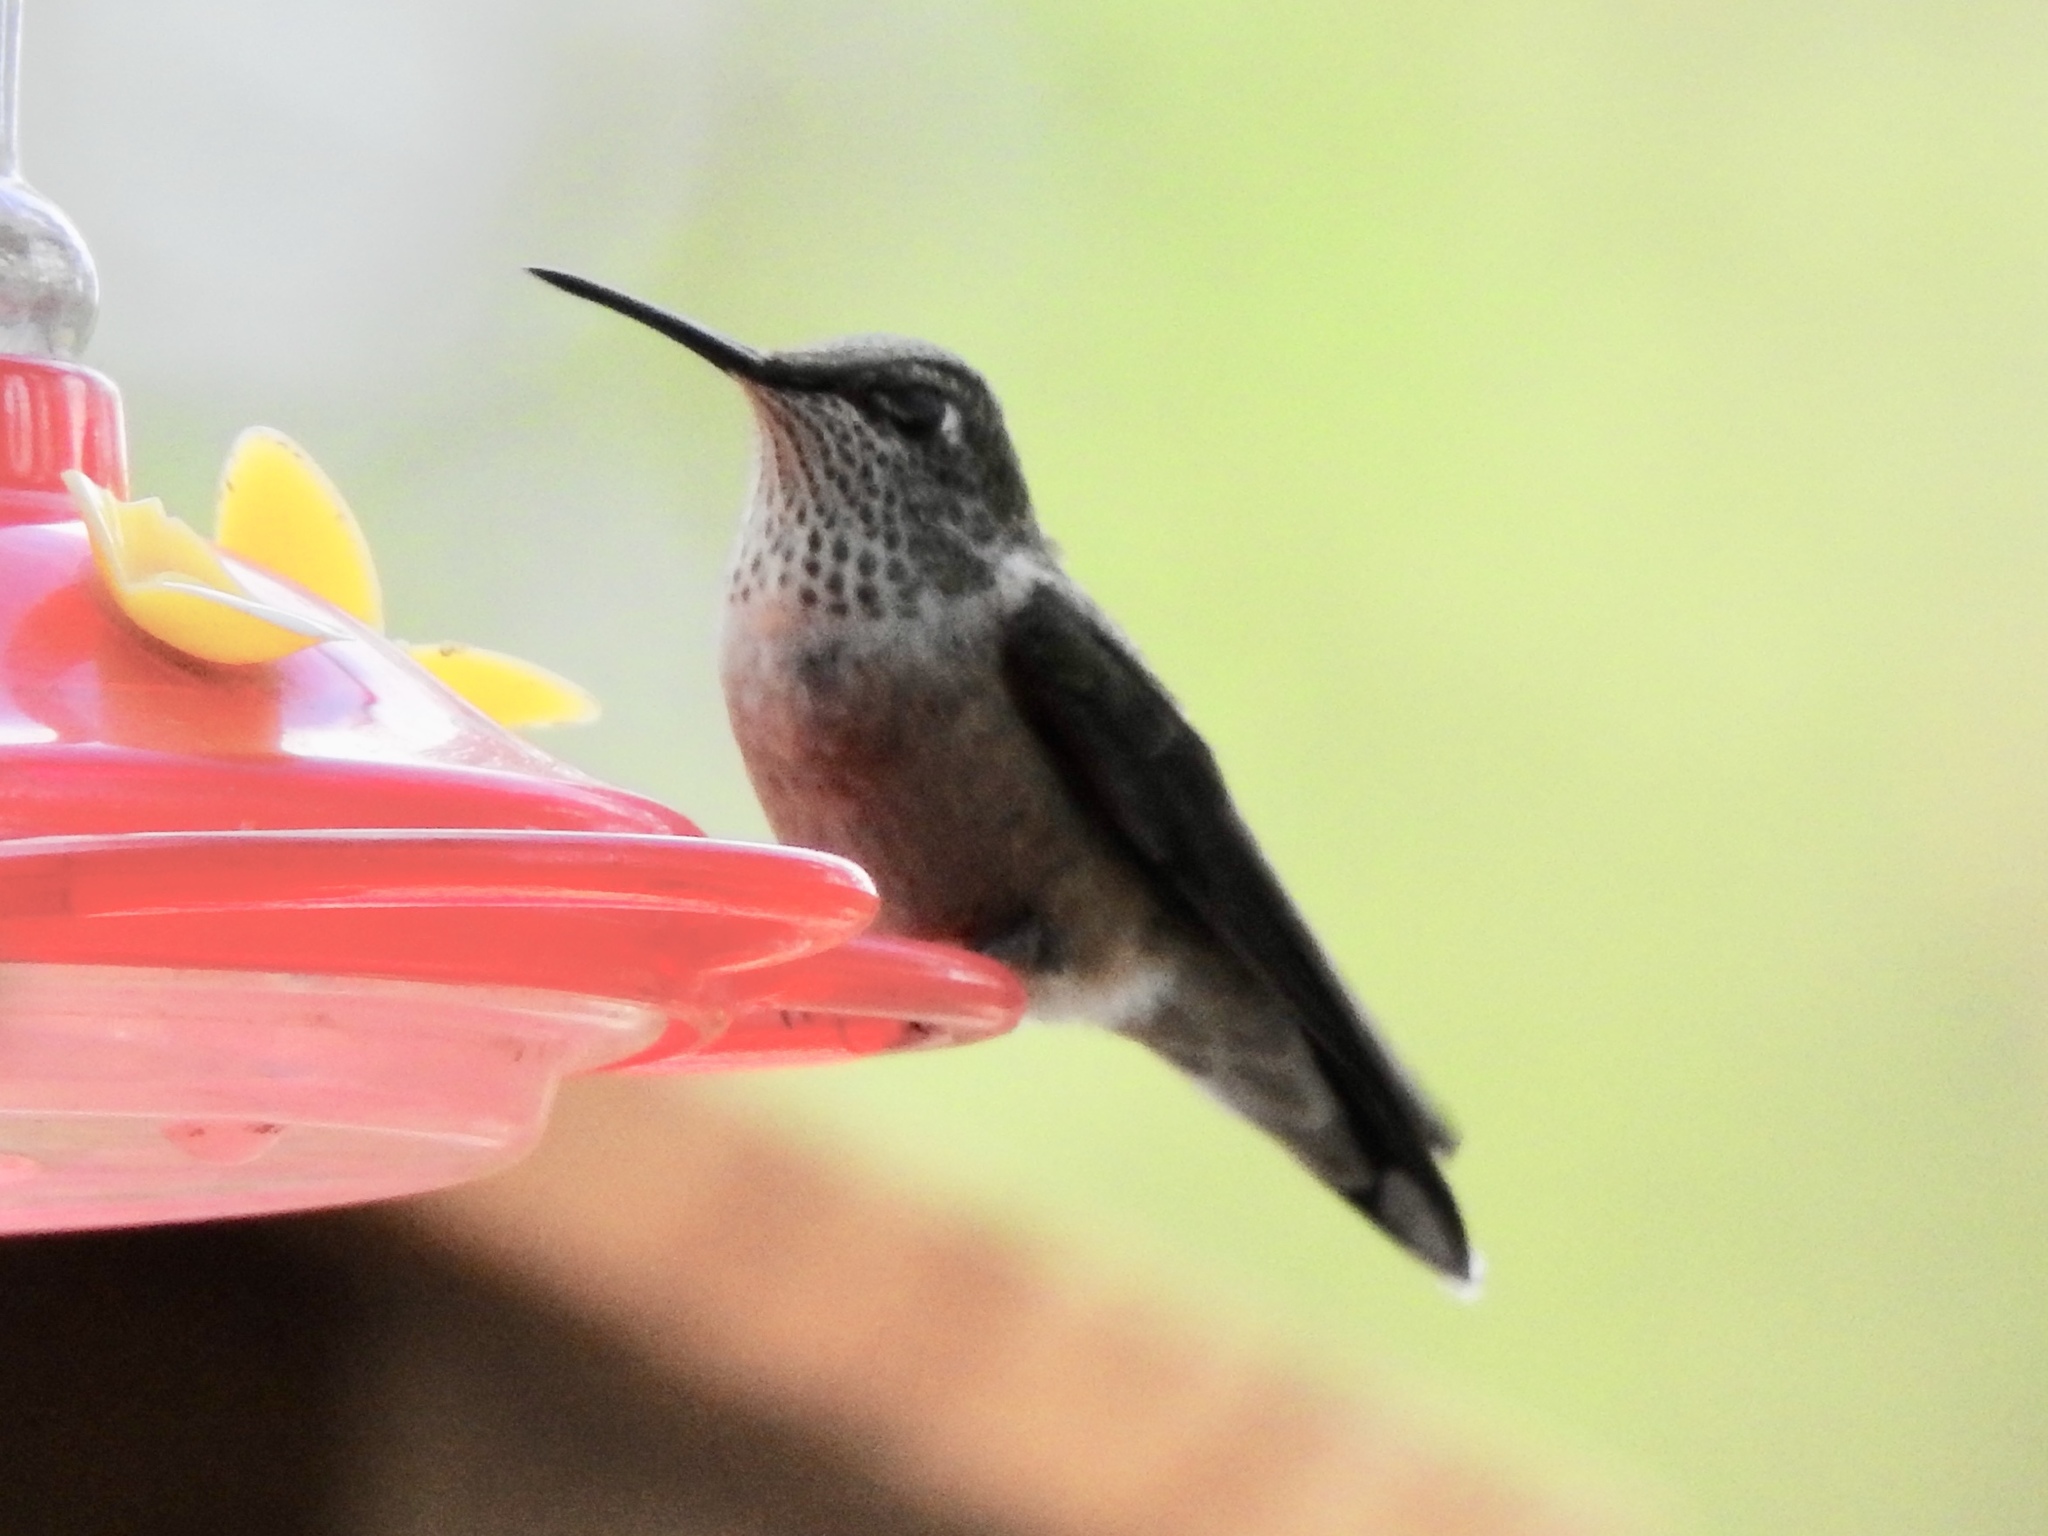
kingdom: Animalia
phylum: Chordata
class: Aves
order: Apodiformes
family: Trochilidae
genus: Selasphorus
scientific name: Selasphorus platycercus
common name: Broad-tailed hummingbird
